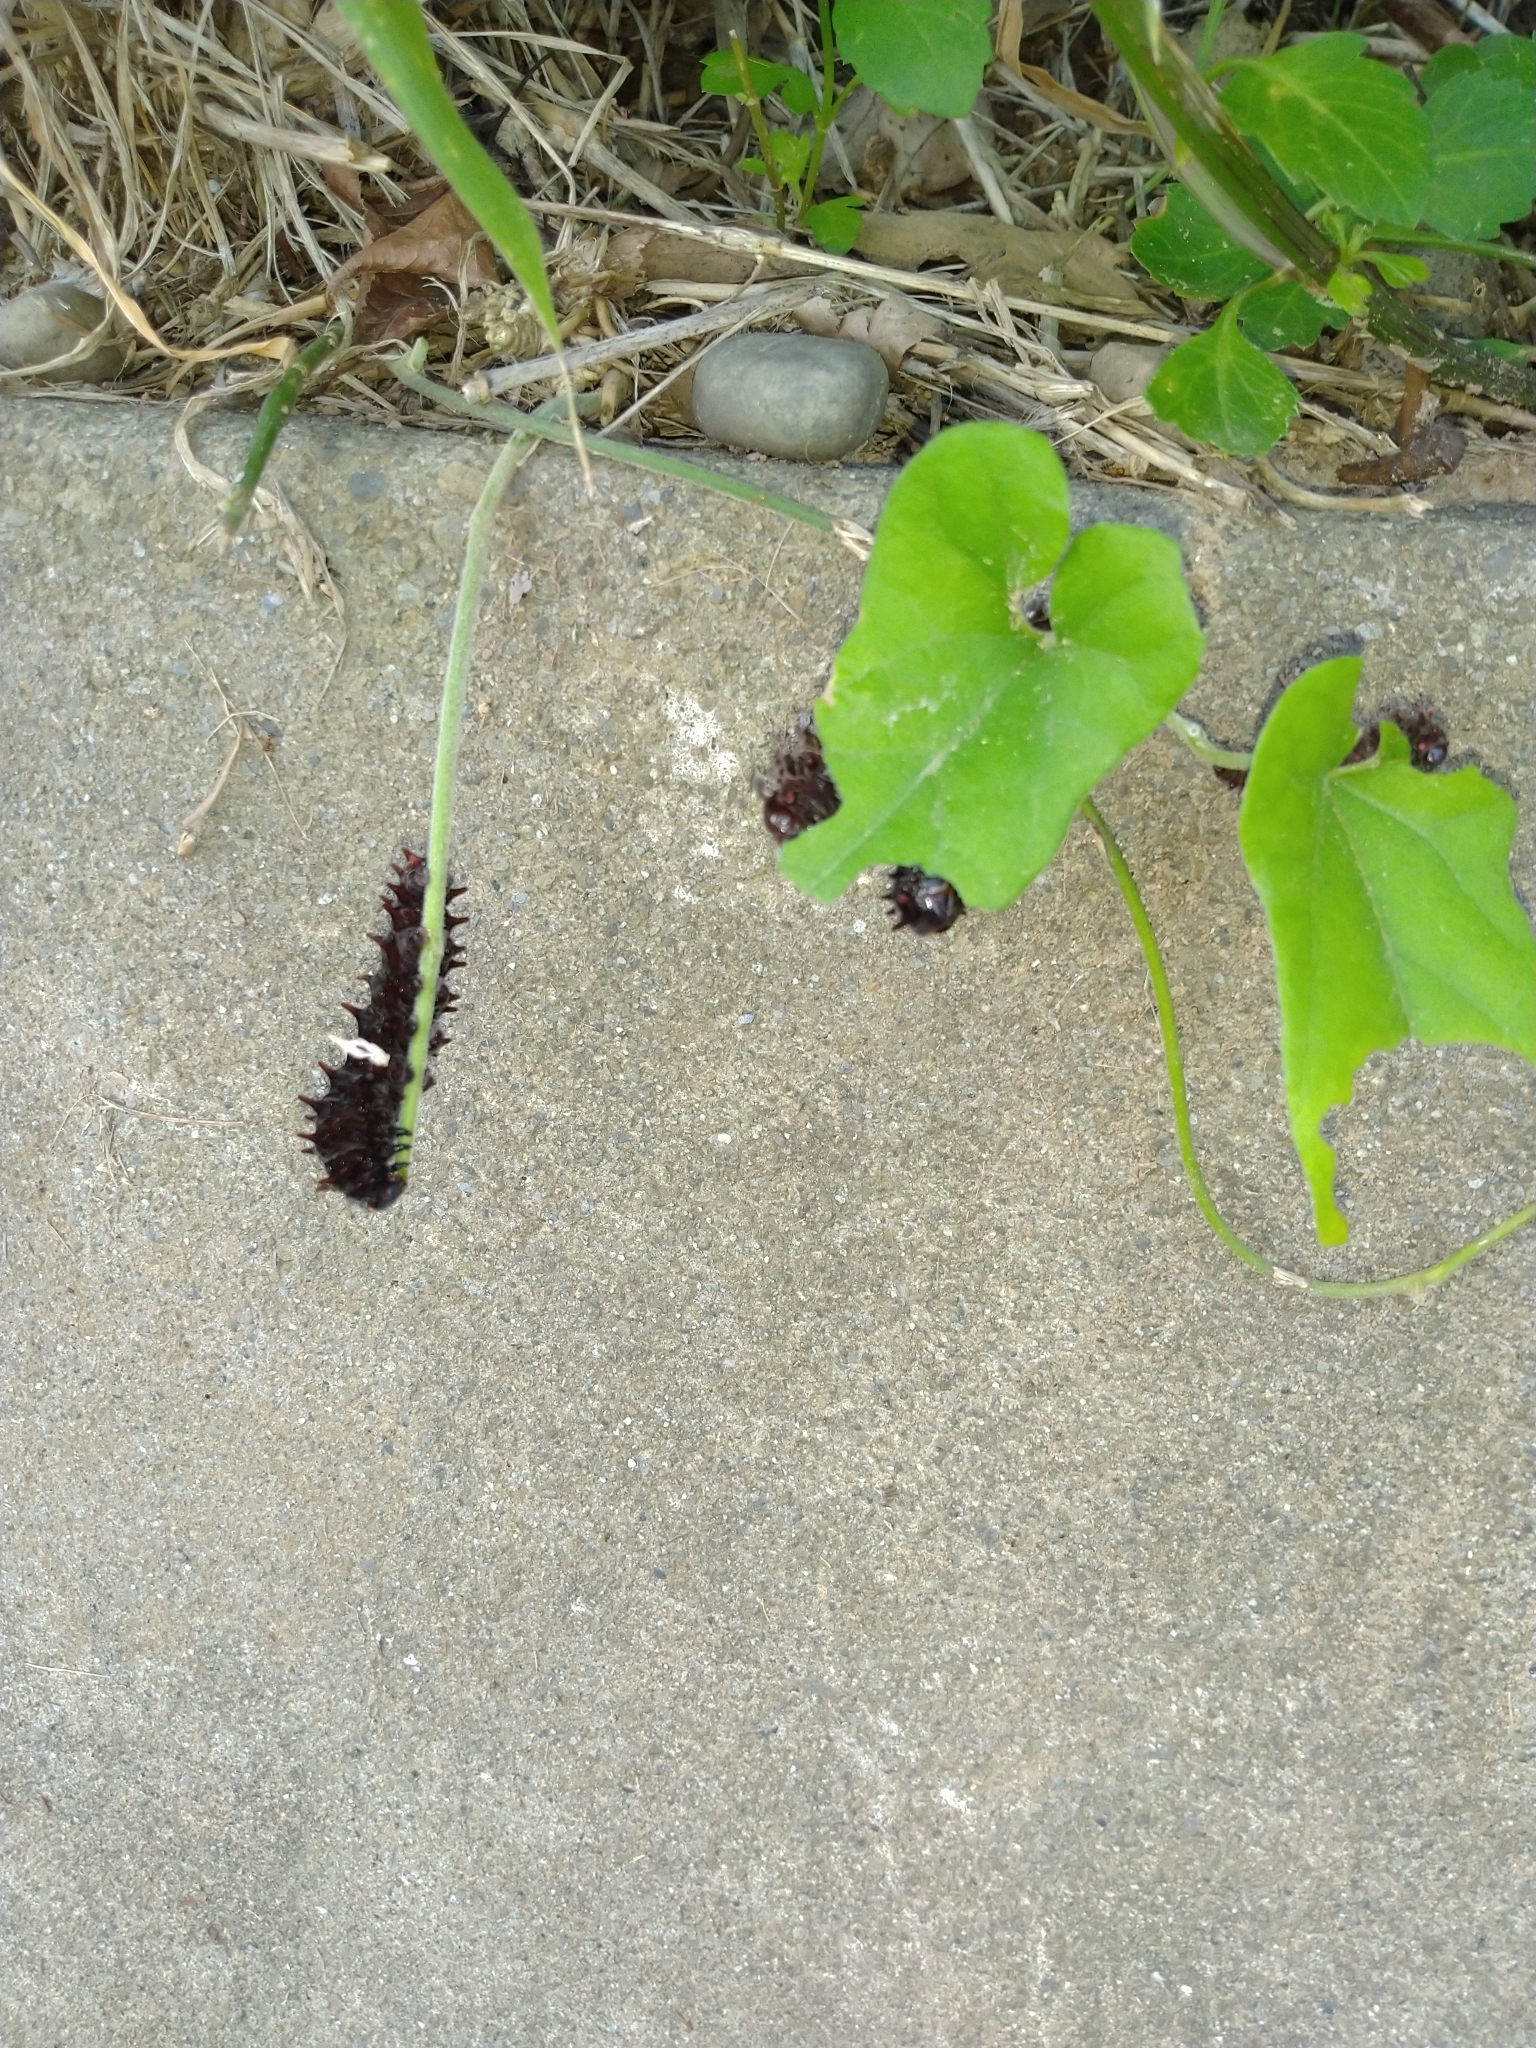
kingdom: Animalia
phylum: Arthropoda
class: Insecta
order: Lepidoptera
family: Papilionidae
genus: Pachliopta
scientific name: Pachliopta aristolochiae
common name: Common rose
